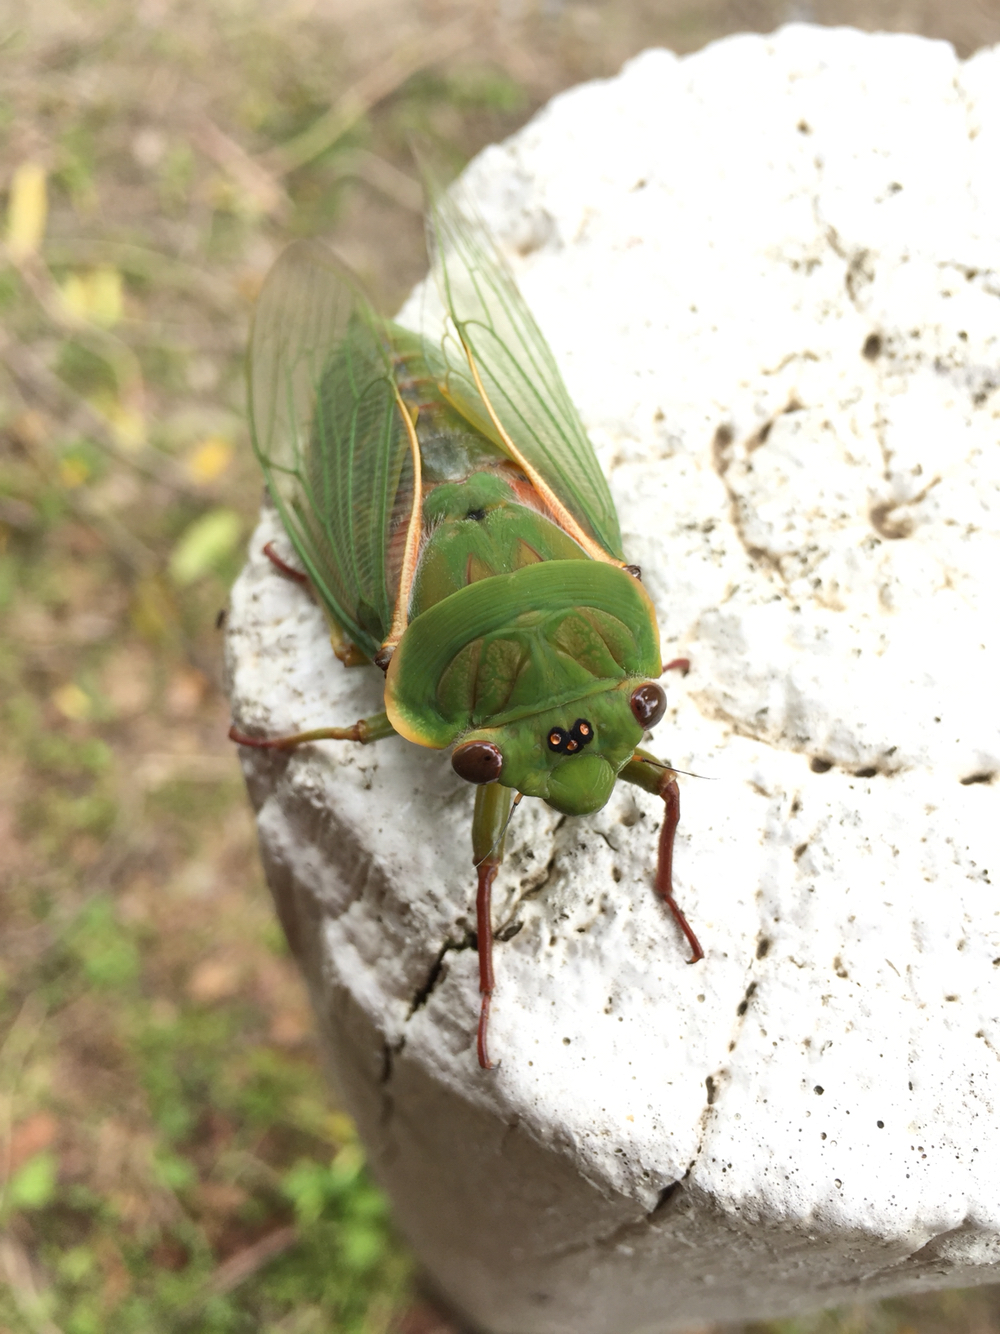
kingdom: Animalia
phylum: Arthropoda
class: Insecta
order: Hemiptera
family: Cicadidae
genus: Cyclochila
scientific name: Cyclochila australasiae
